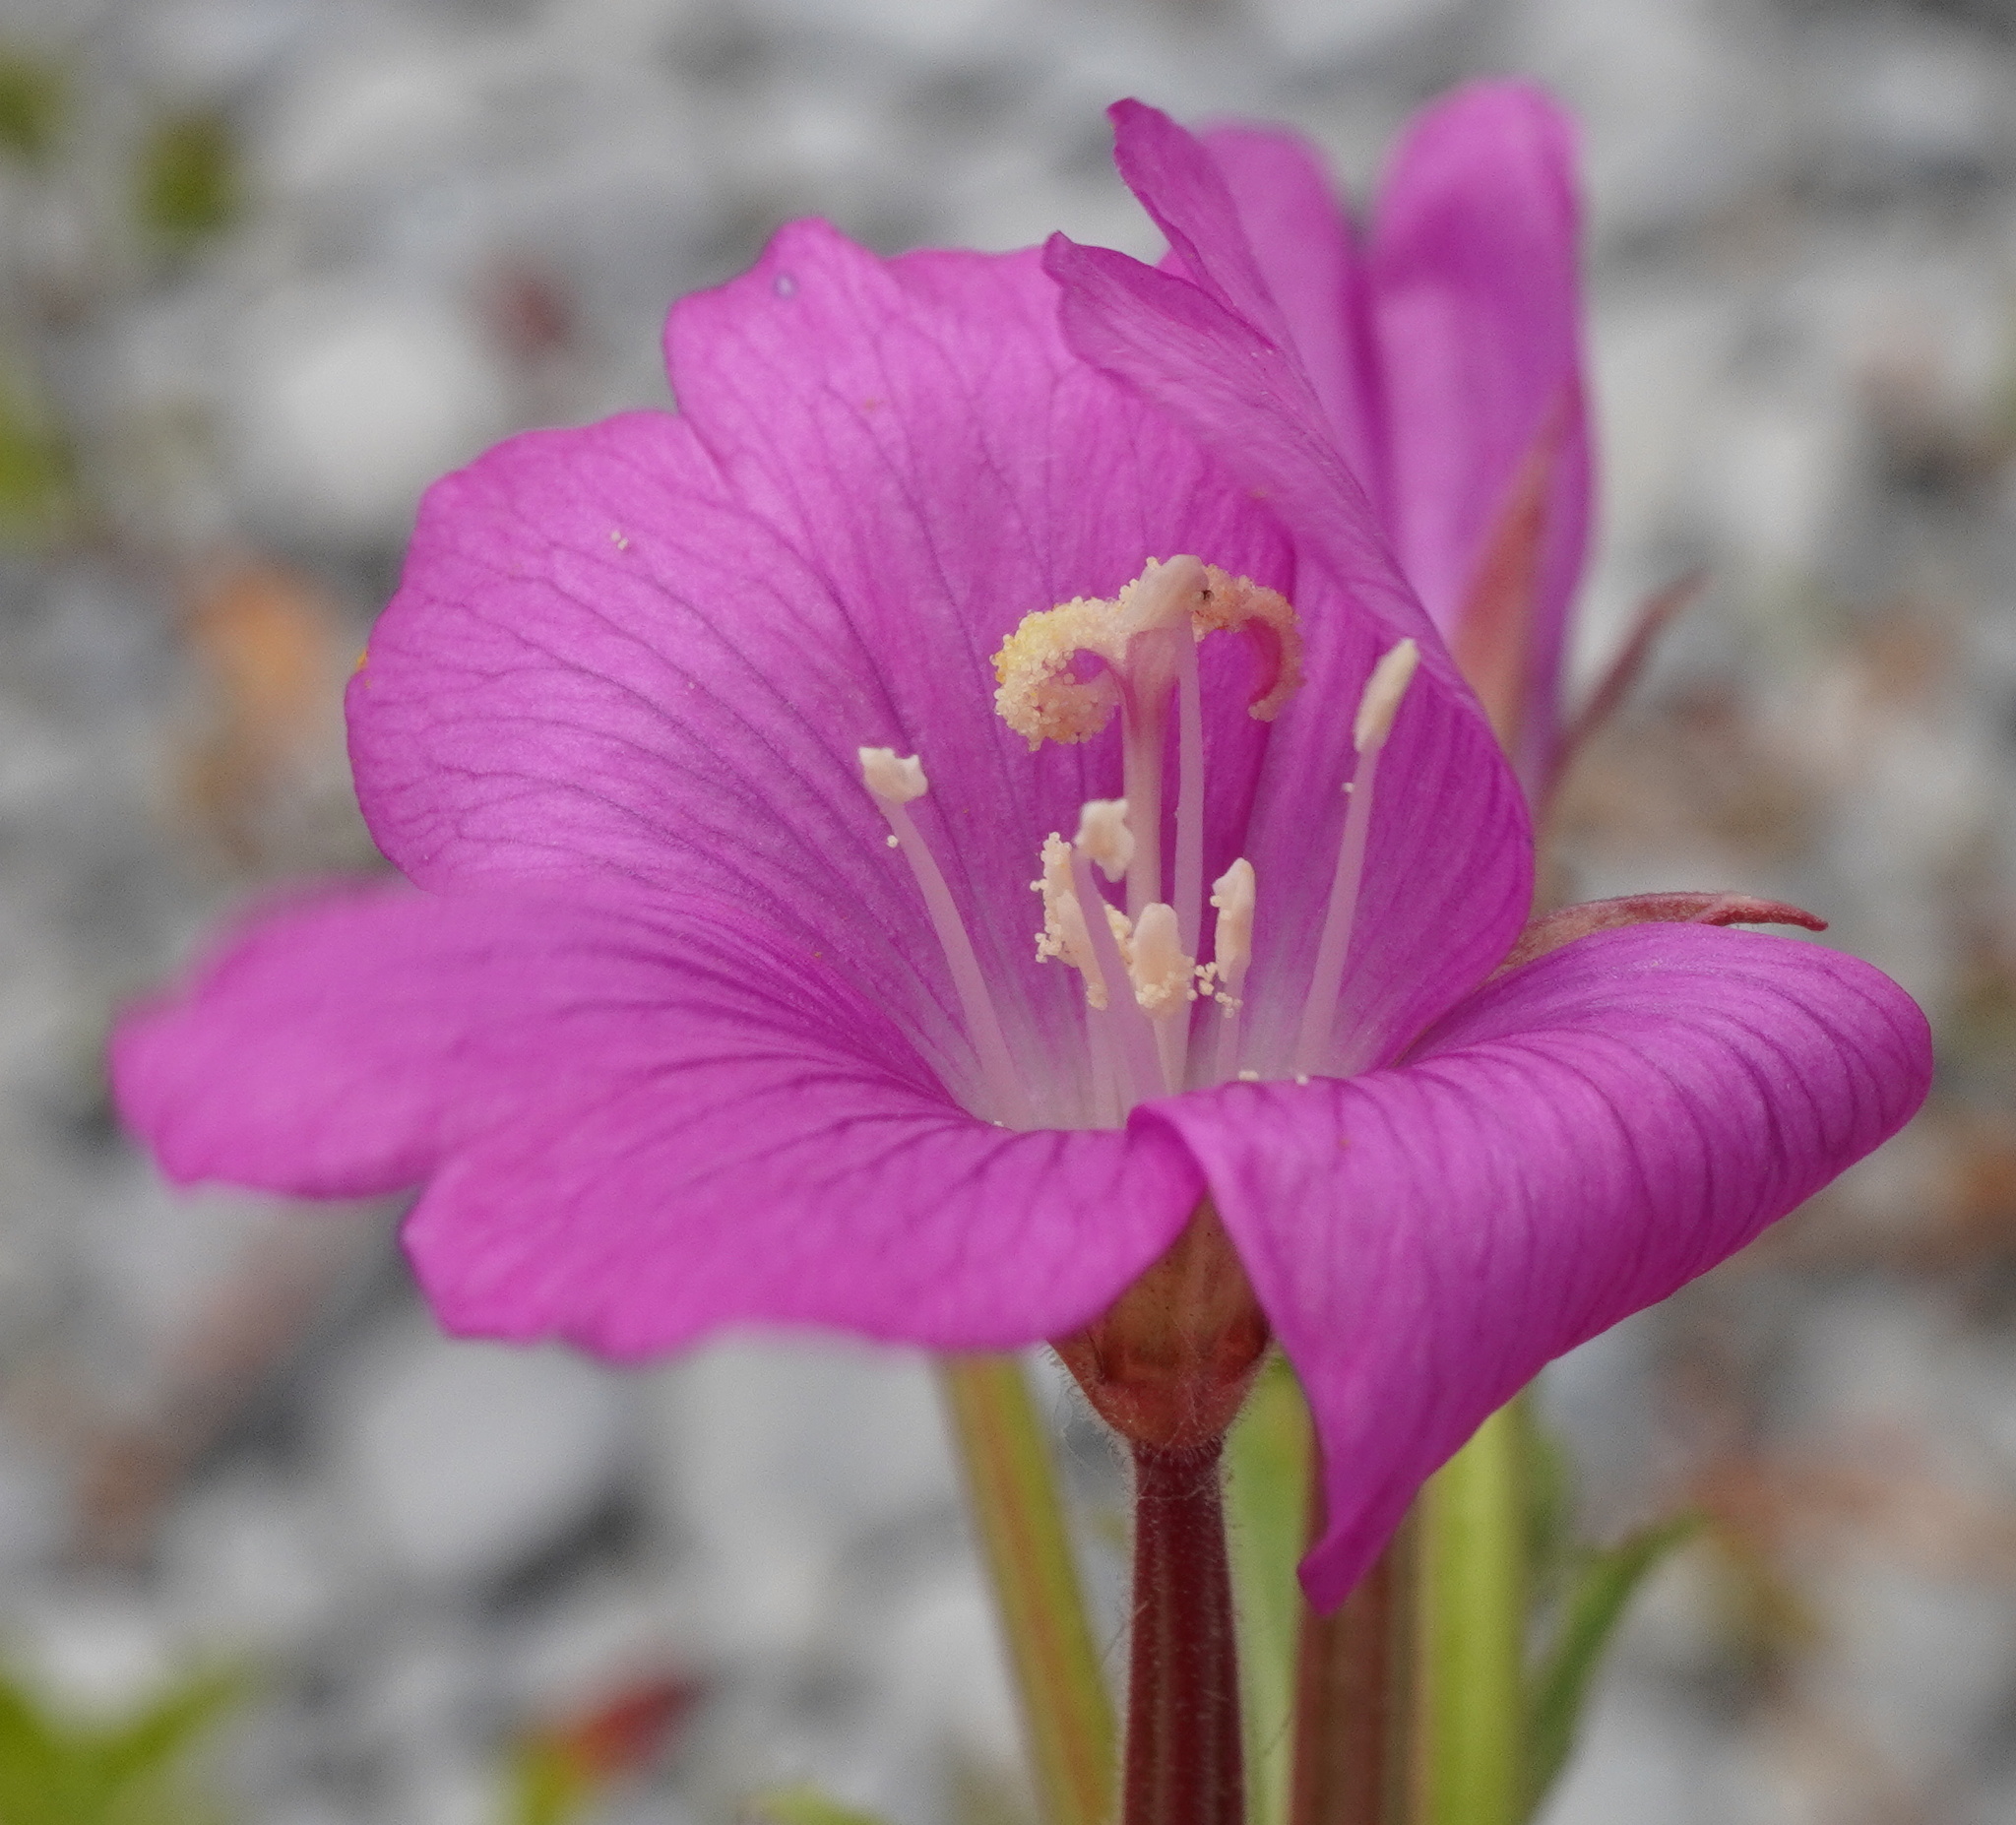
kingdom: Plantae
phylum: Tracheophyta
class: Magnoliopsida
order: Myrtales
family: Onagraceae
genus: Epilobium
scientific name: Epilobium hirsutum
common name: Great willowherb
